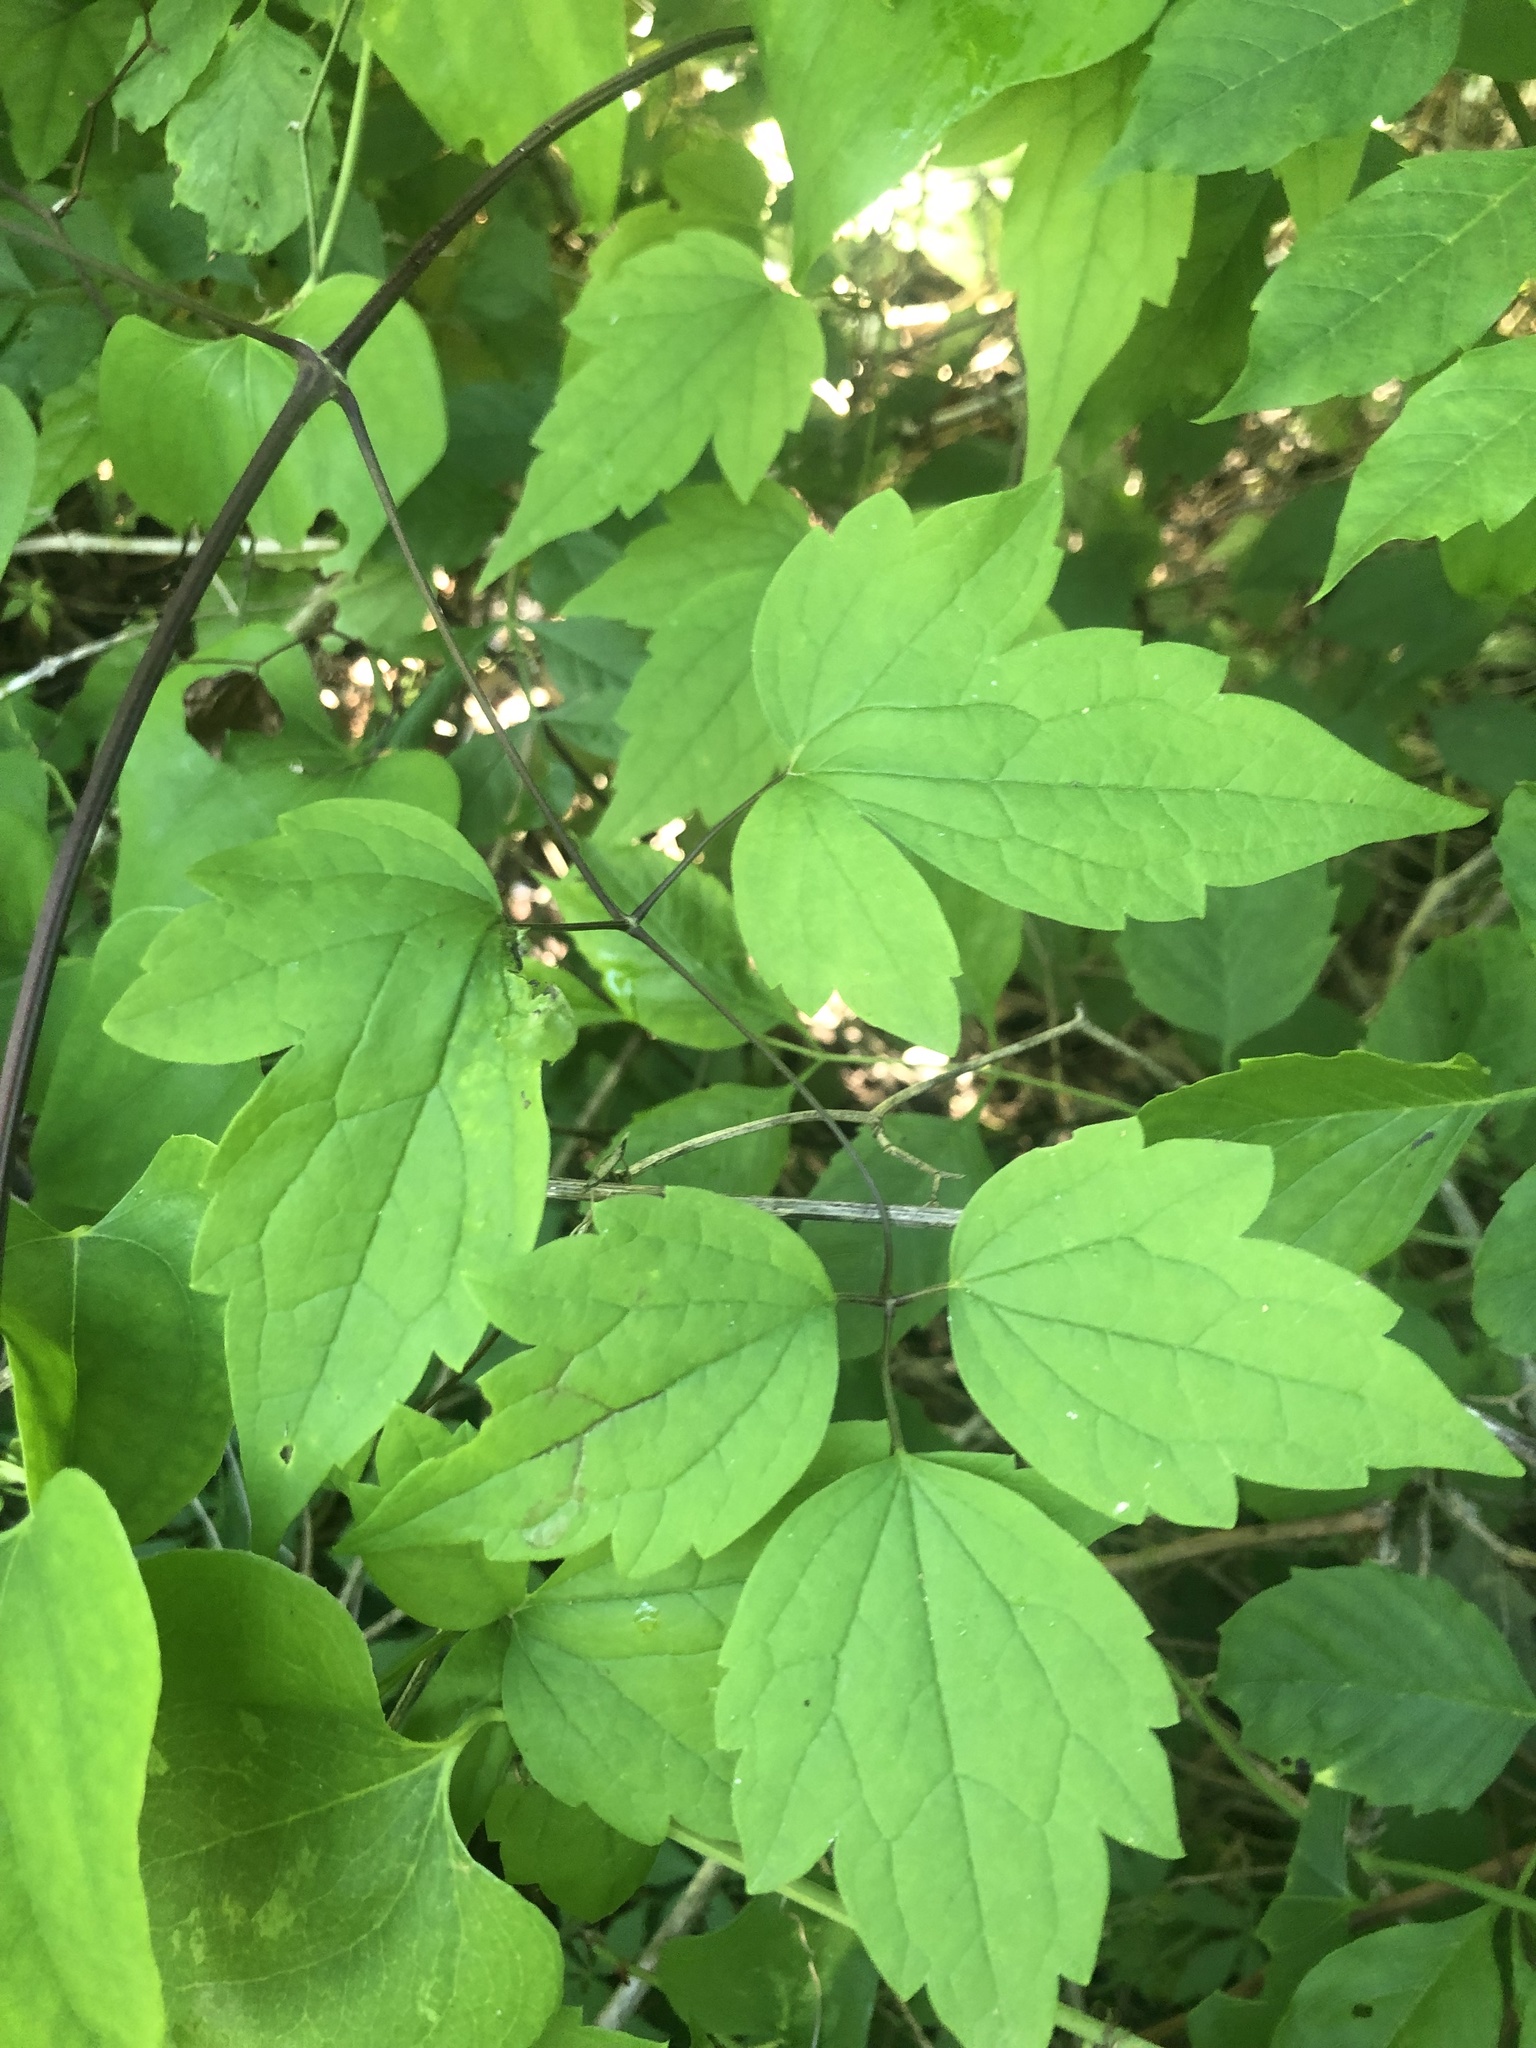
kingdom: Plantae
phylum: Tracheophyta
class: Magnoliopsida
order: Ranunculales
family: Ranunculaceae
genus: Clematis
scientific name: Clematis catesbyana
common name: Virgin's bower
